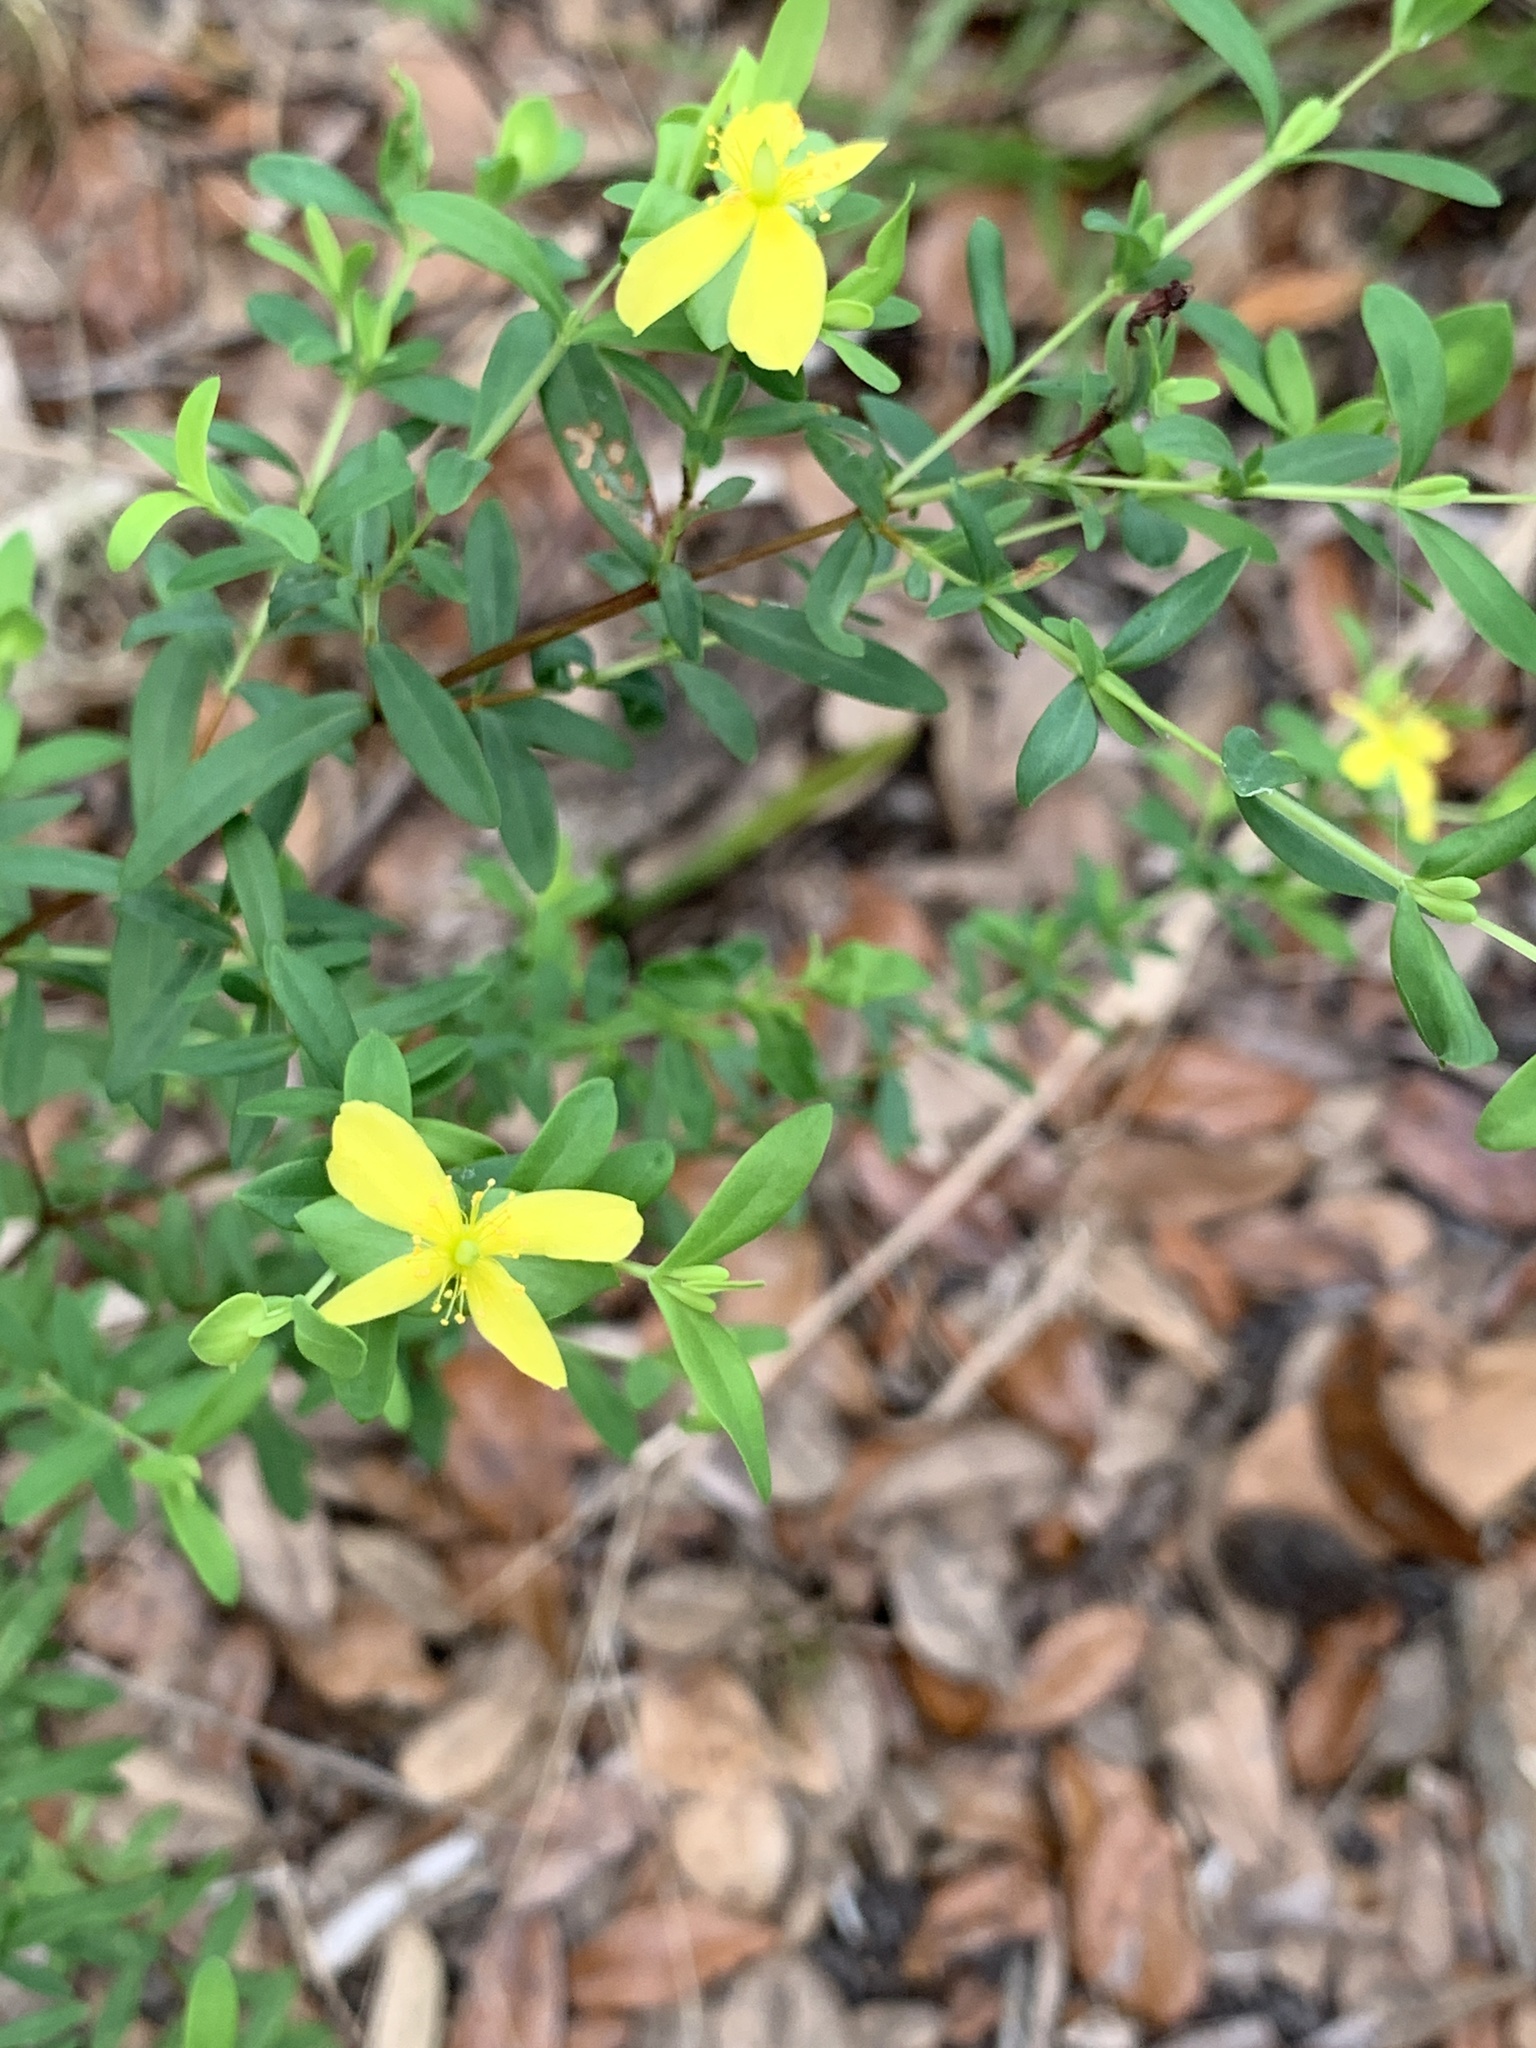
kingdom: Plantae
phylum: Tracheophyta
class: Magnoliopsida
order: Malpighiales
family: Hypericaceae
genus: Hypericum
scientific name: Hypericum hypericoides
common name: St. andrew's cross
